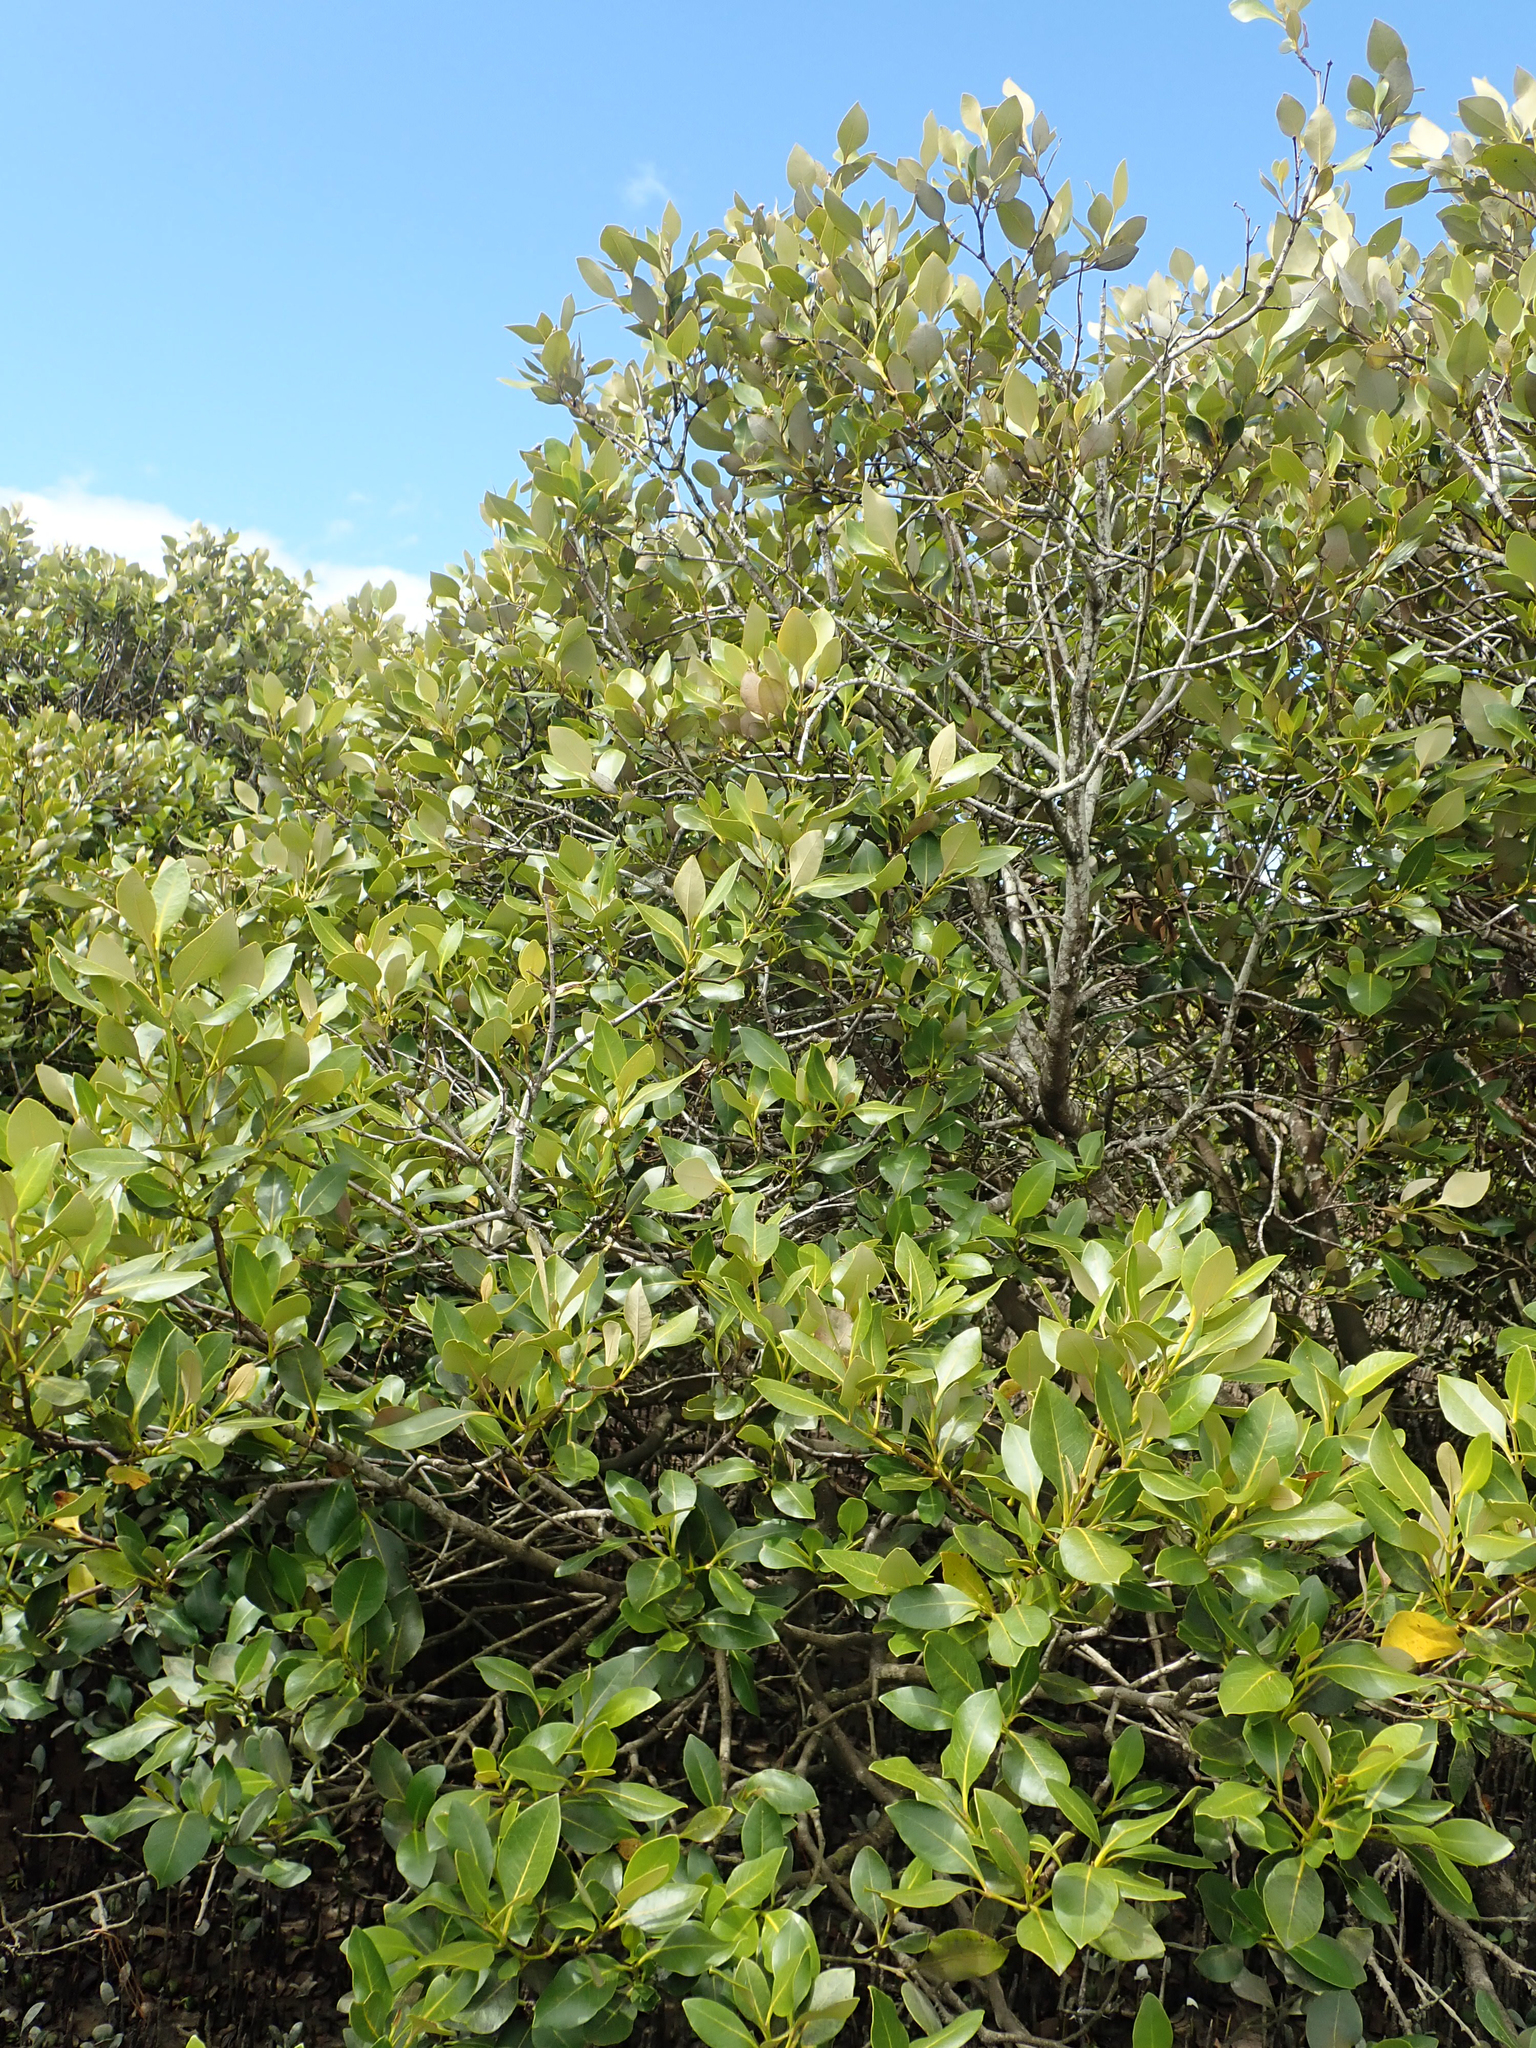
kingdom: Plantae
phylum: Tracheophyta
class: Magnoliopsida
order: Lamiales
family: Acanthaceae
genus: Avicennia
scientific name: Avicennia marina
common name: Gray mangrove
